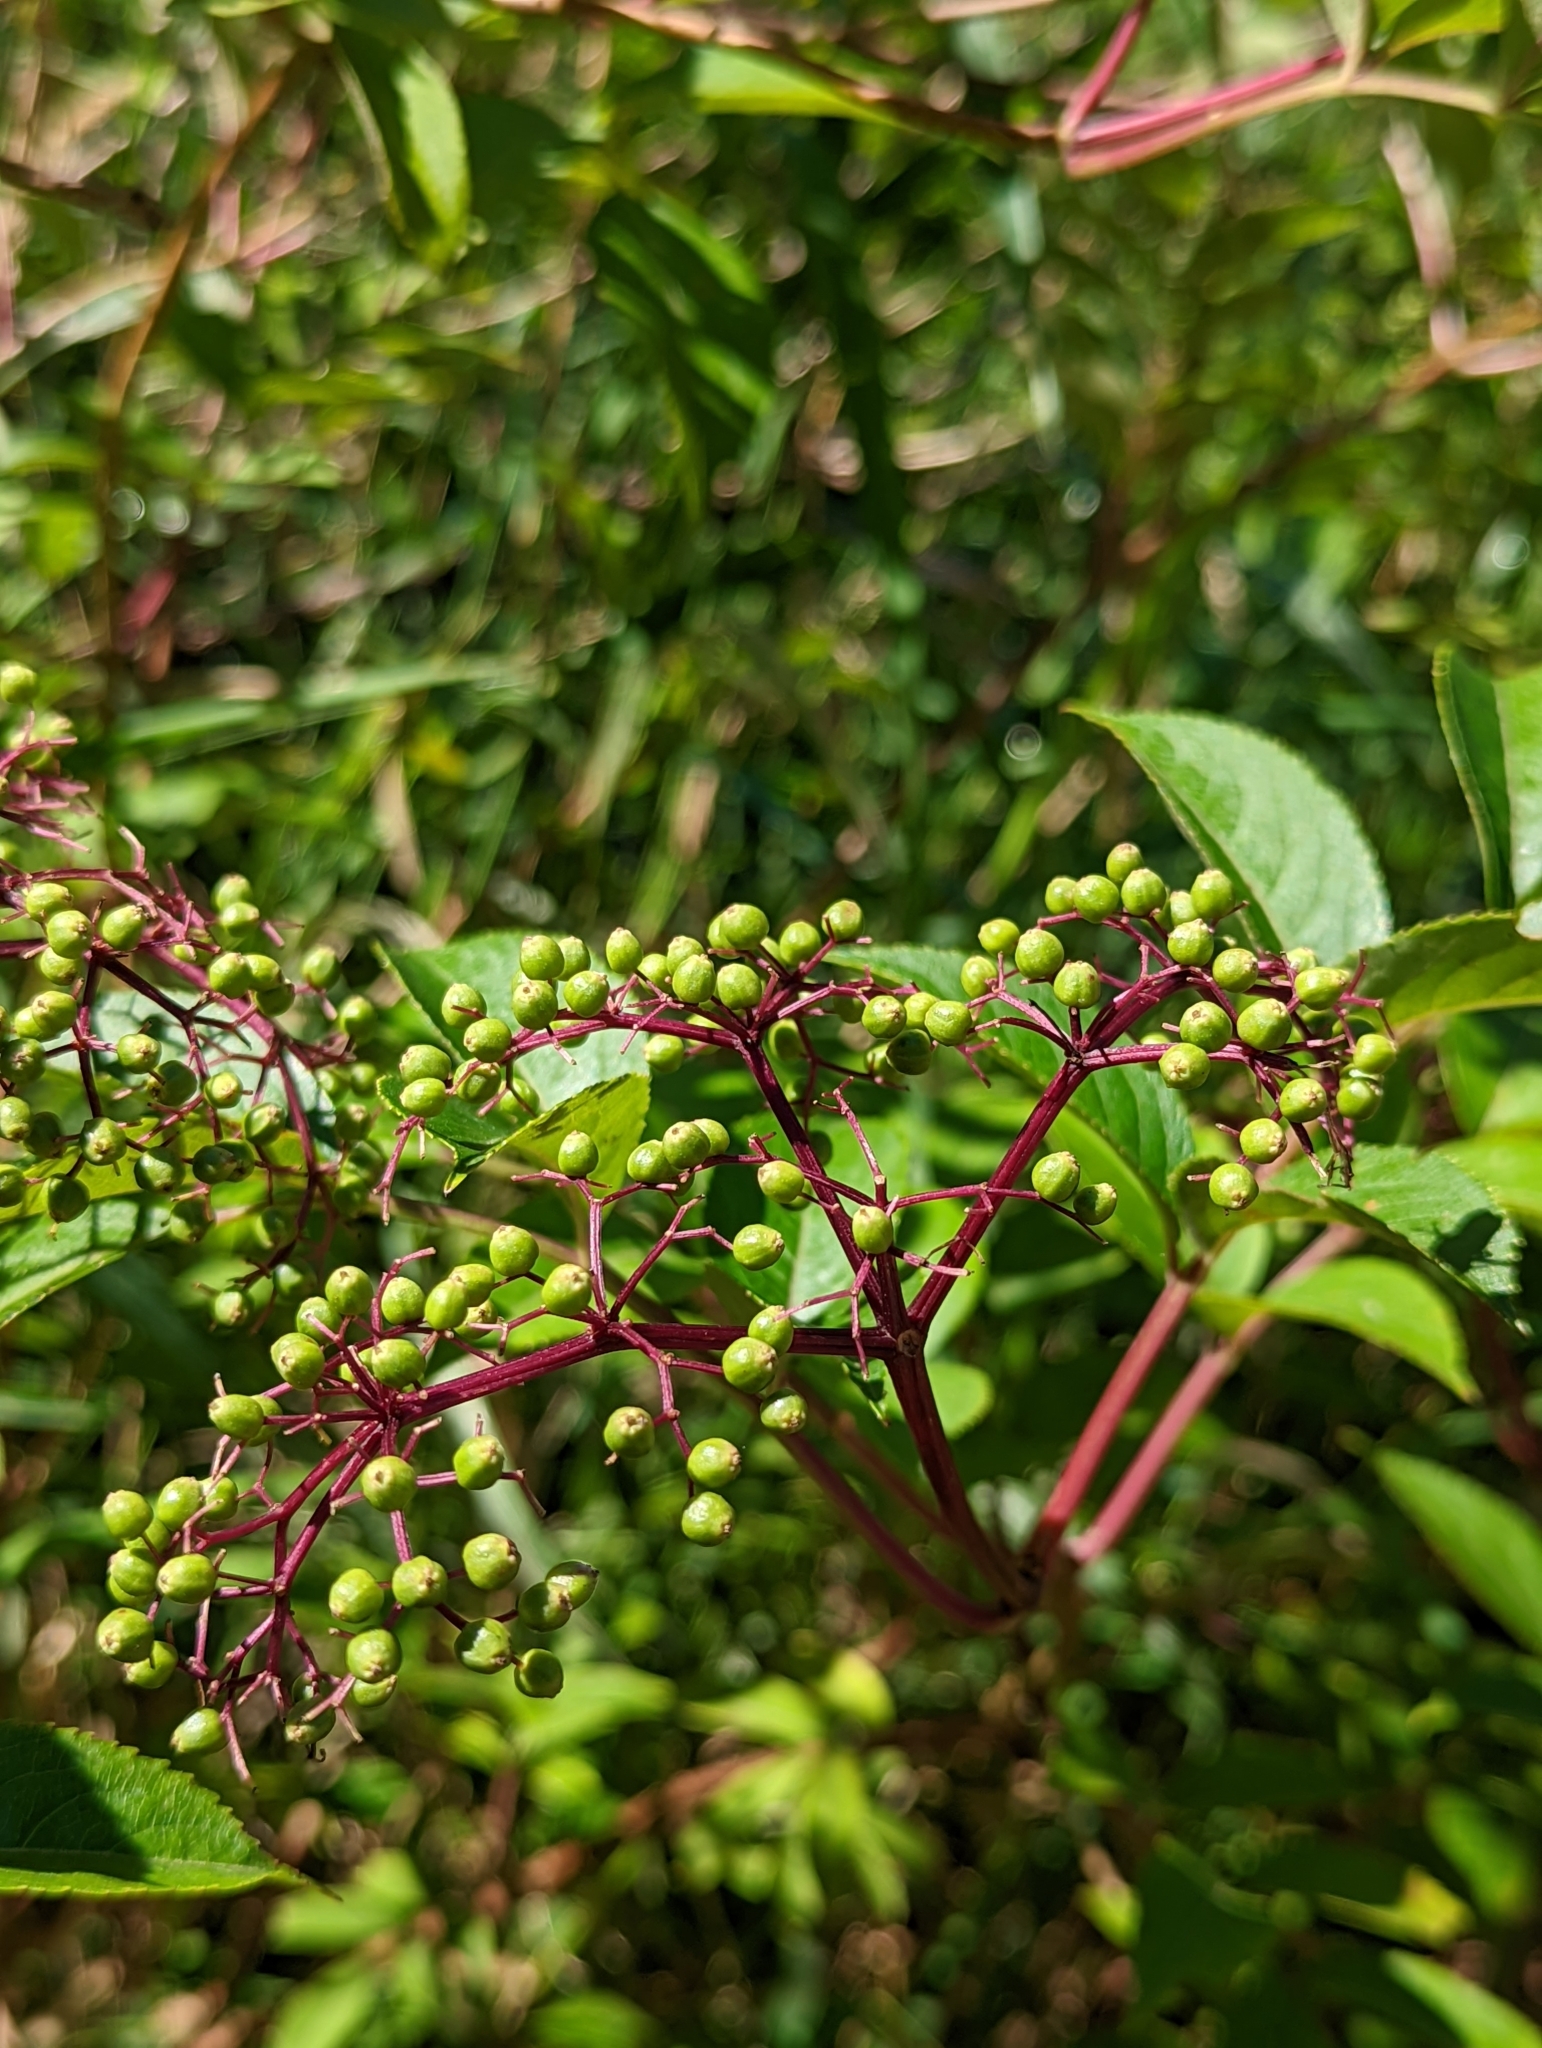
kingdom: Plantae
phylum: Tracheophyta
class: Magnoliopsida
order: Dipsacales
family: Viburnaceae
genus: Sambucus
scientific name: Sambucus canadensis
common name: American elder
